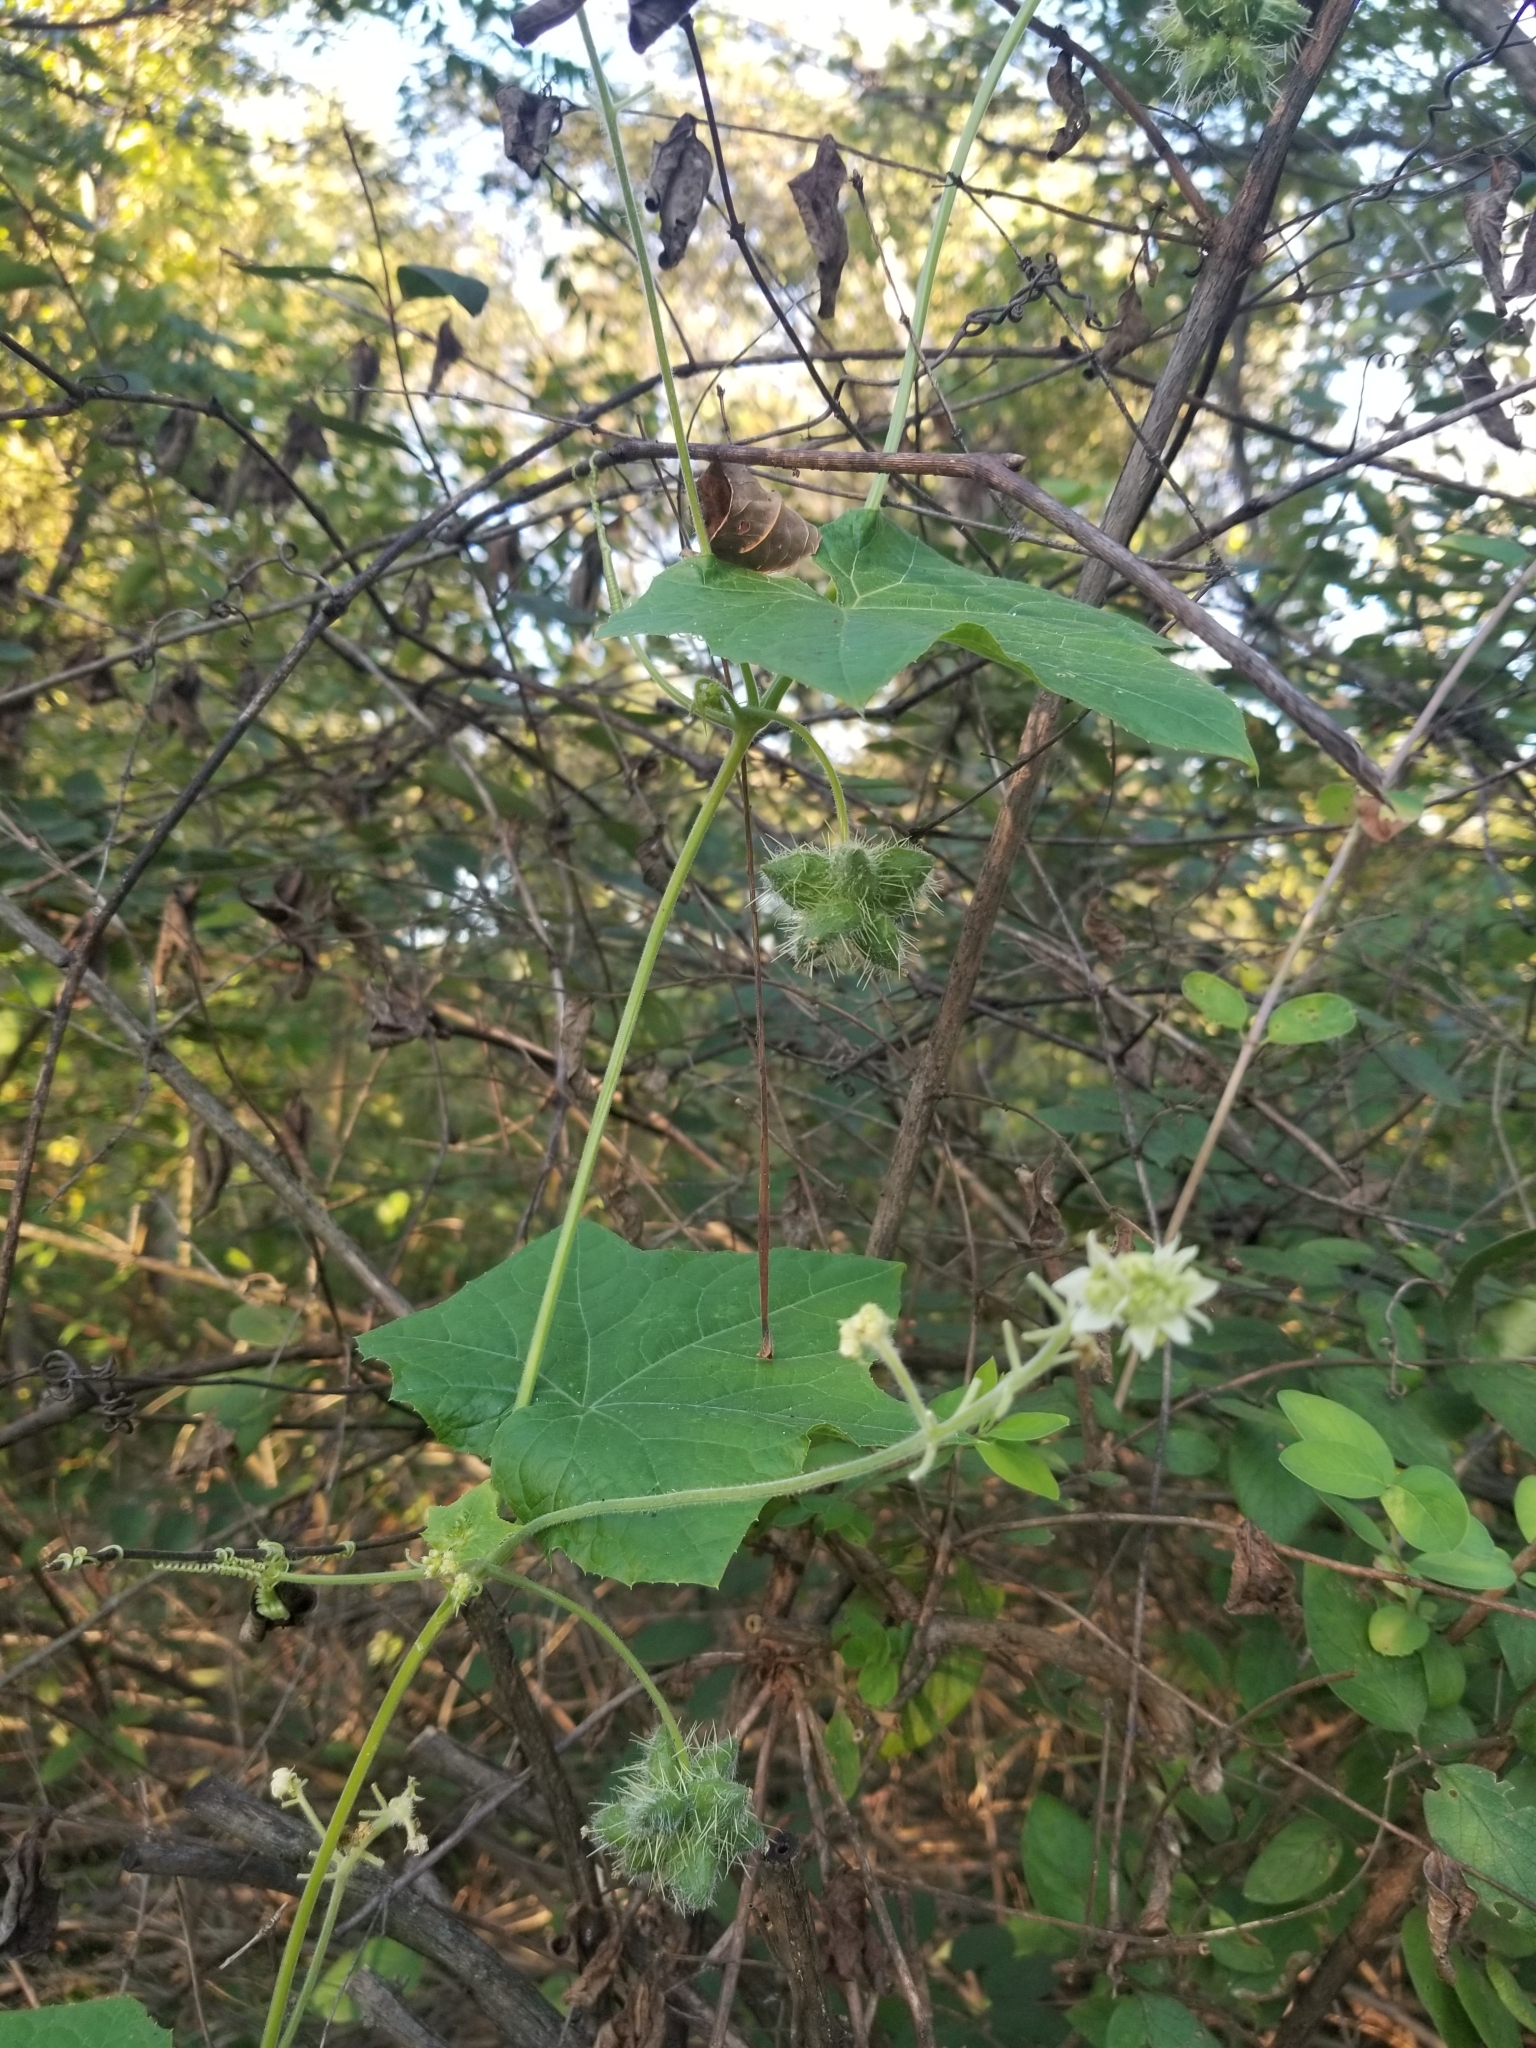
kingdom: Plantae
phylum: Tracheophyta
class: Magnoliopsida
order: Cucurbitales
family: Cucurbitaceae
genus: Sicyos
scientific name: Sicyos angulatus
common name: Angled burr cucumber
